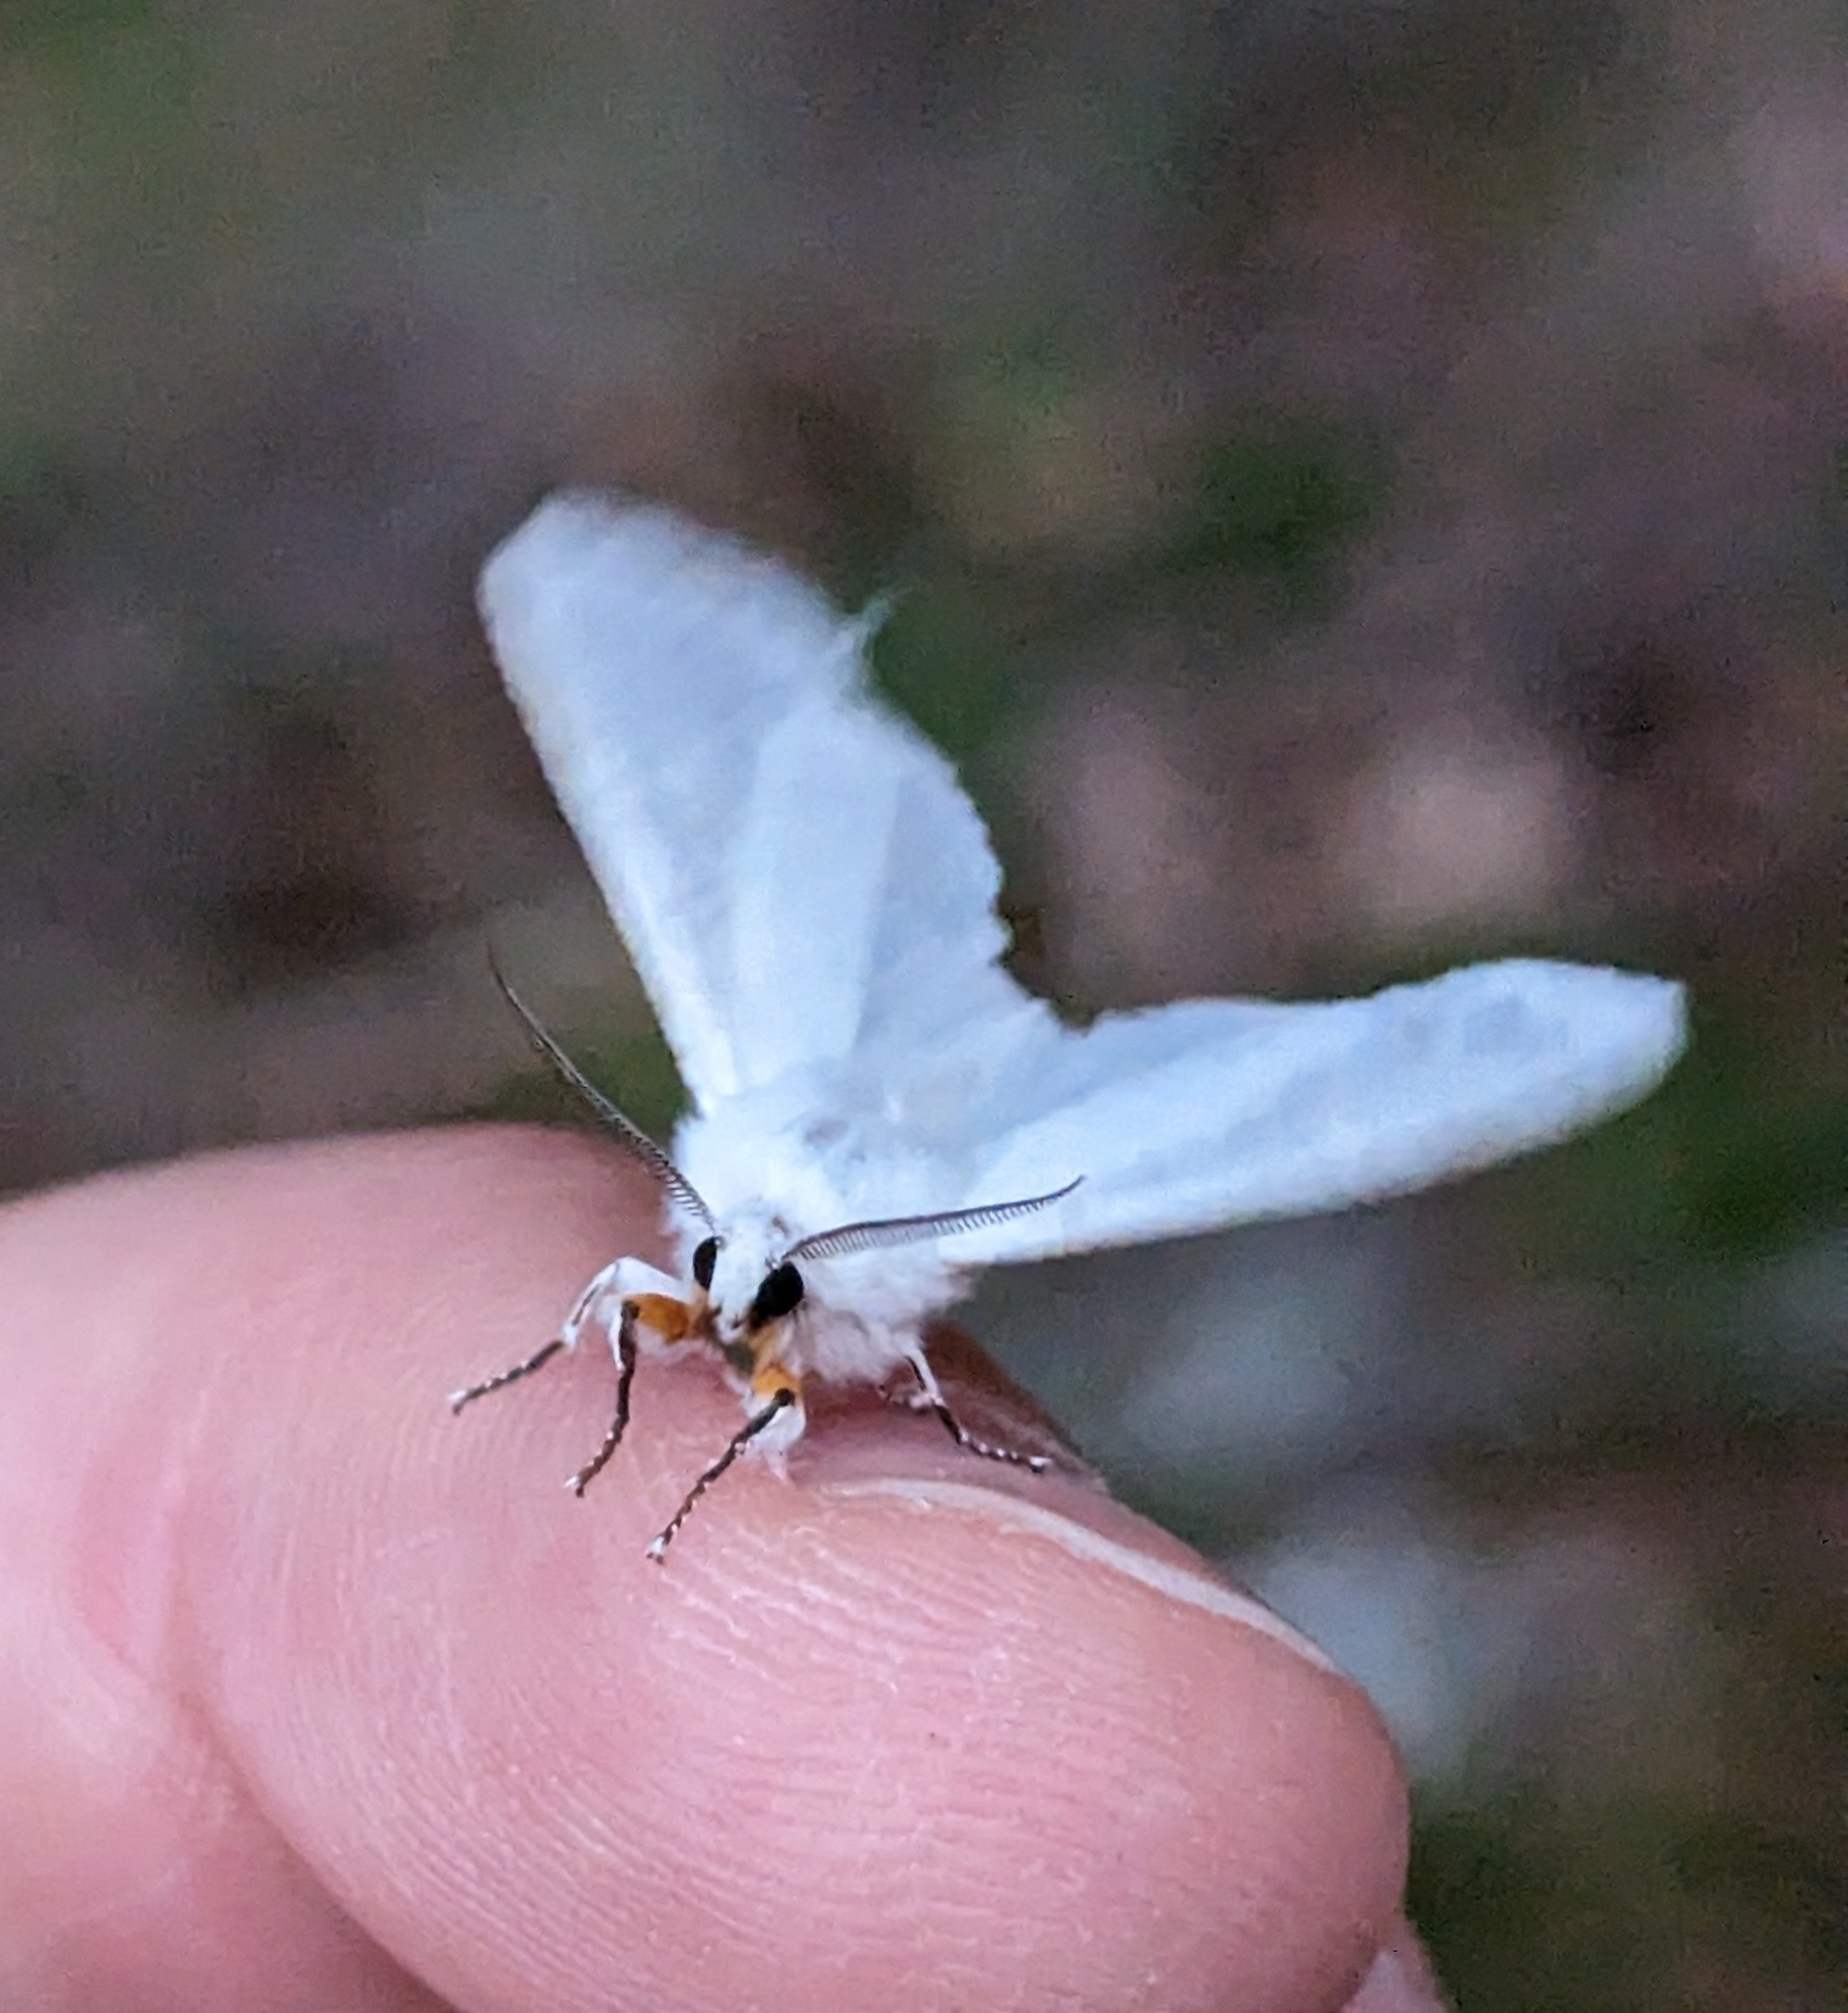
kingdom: Animalia
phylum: Arthropoda
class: Insecta
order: Lepidoptera
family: Erebidae
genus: Hyphantria
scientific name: Hyphantria cunea
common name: American white moth
